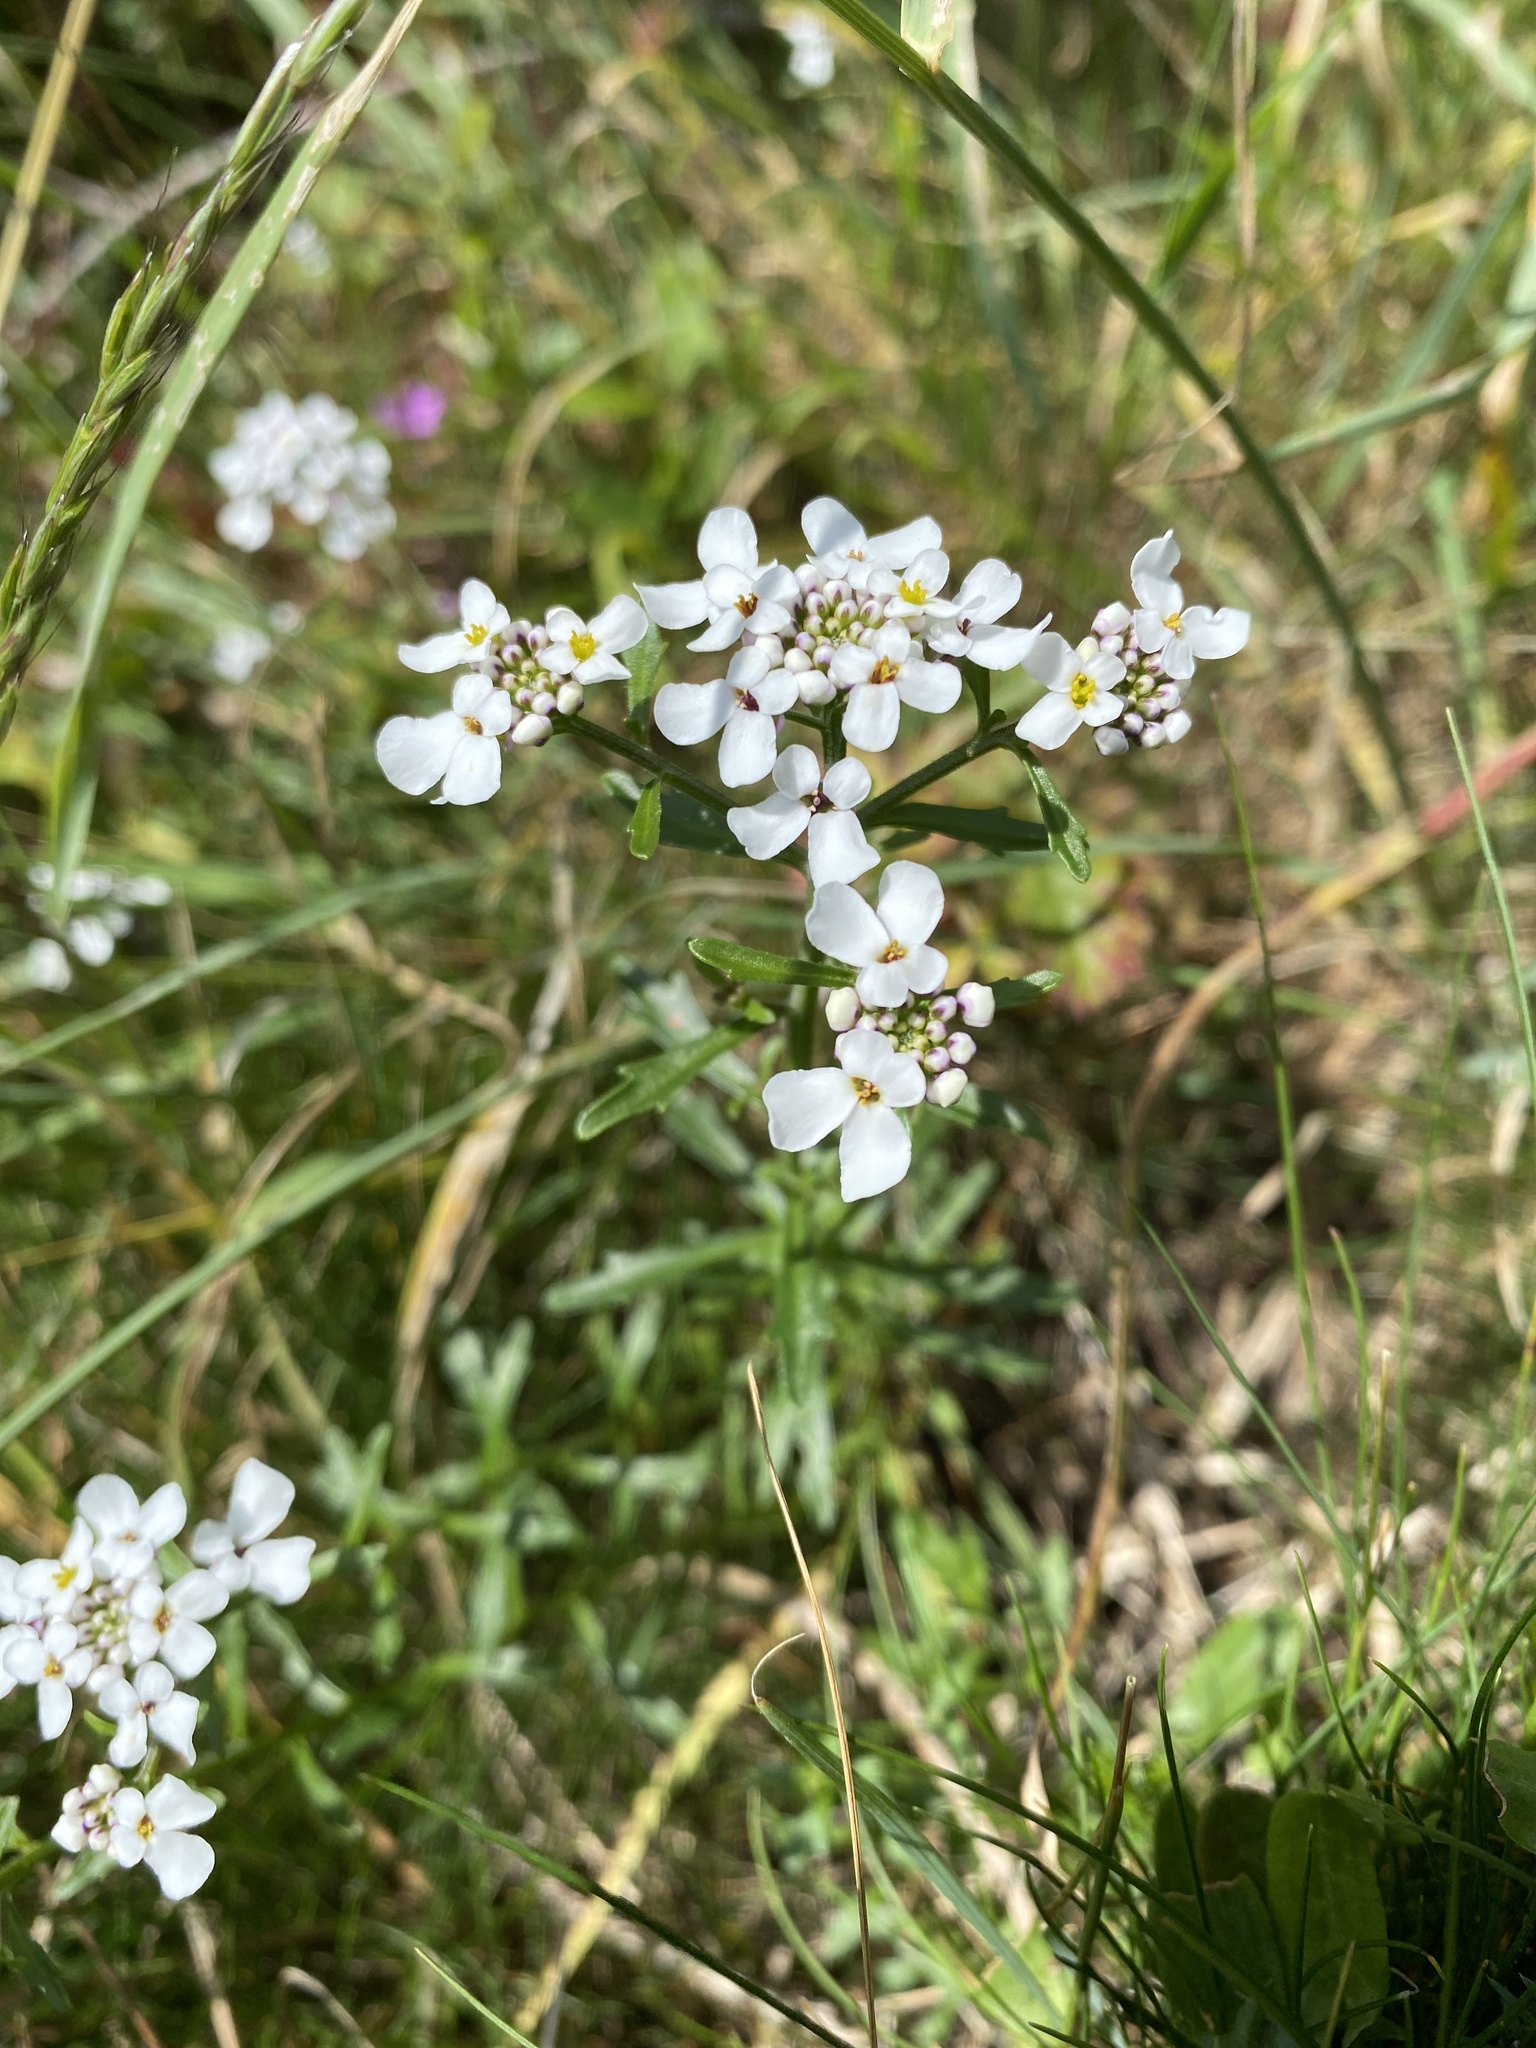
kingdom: Plantae
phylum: Tracheophyta
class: Magnoliopsida
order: Brassicales
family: Brassicaceae
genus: Iberis
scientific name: Iberis amara
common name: Annual candytuft
